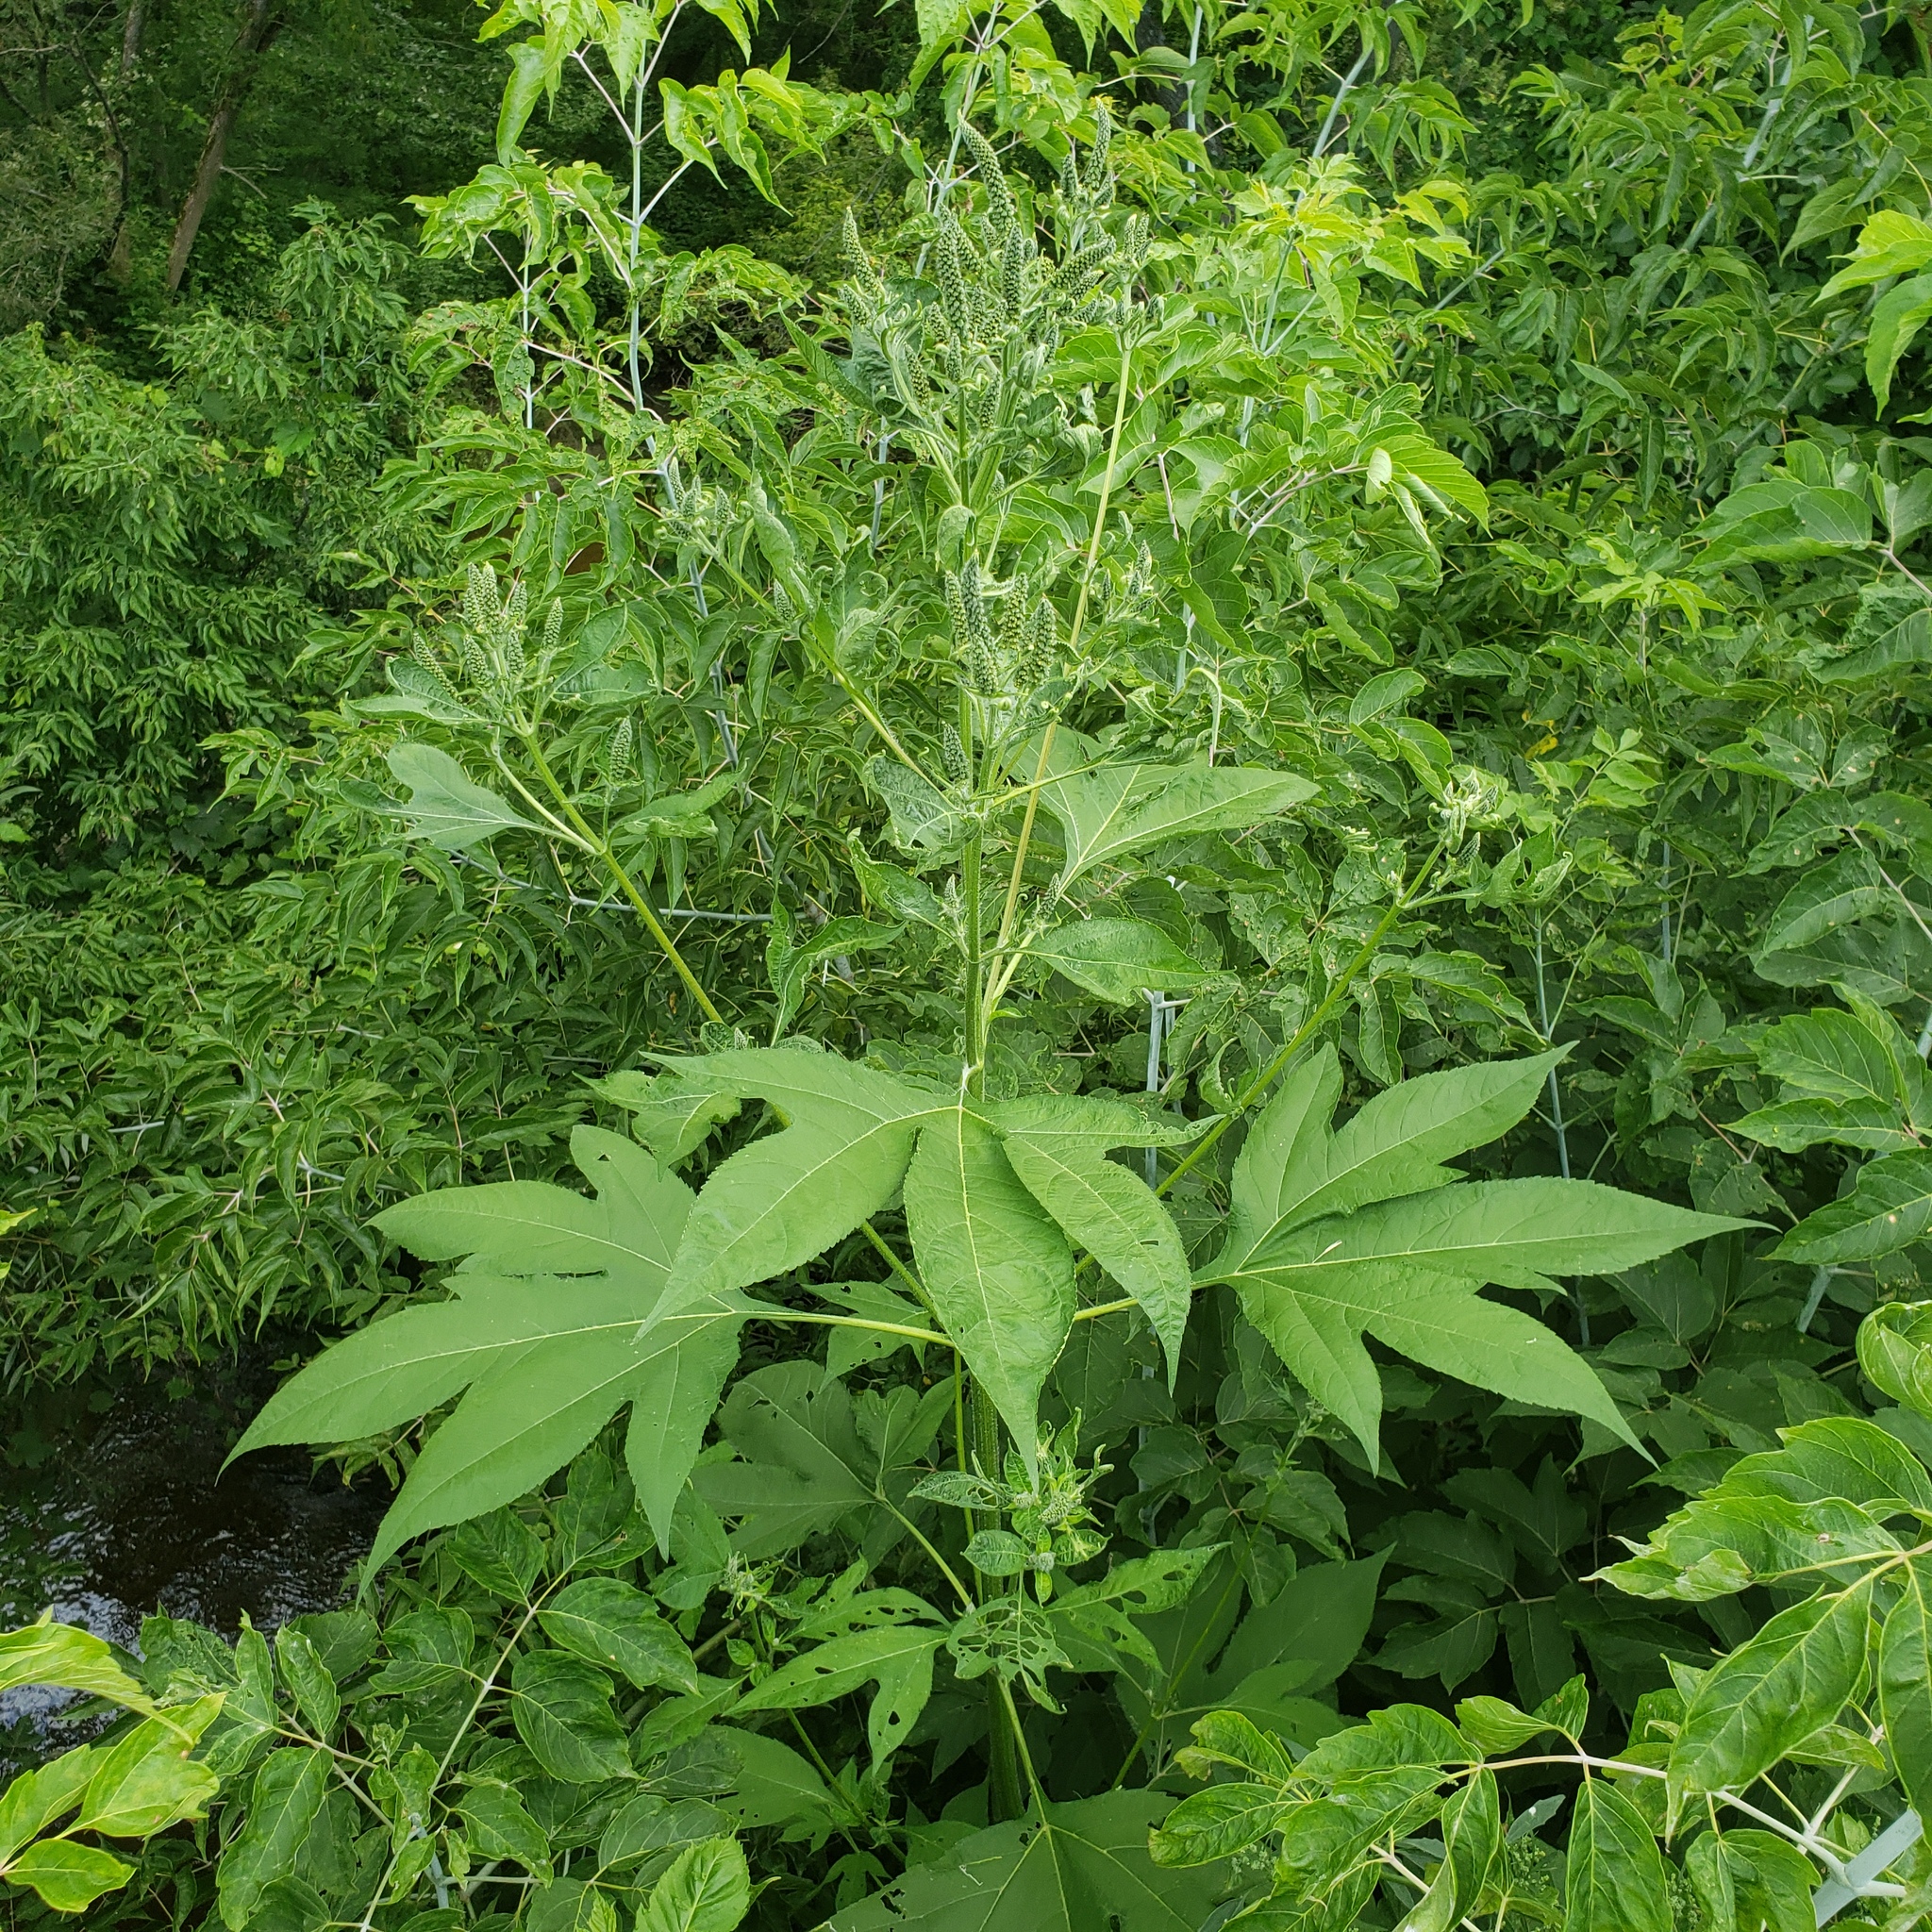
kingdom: Plantae
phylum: Tracheophyta
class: Magnoliopsida
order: Asterales
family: Asteraceae
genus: Ambrosia
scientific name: Ambrosia trifida
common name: Giant ragweed
